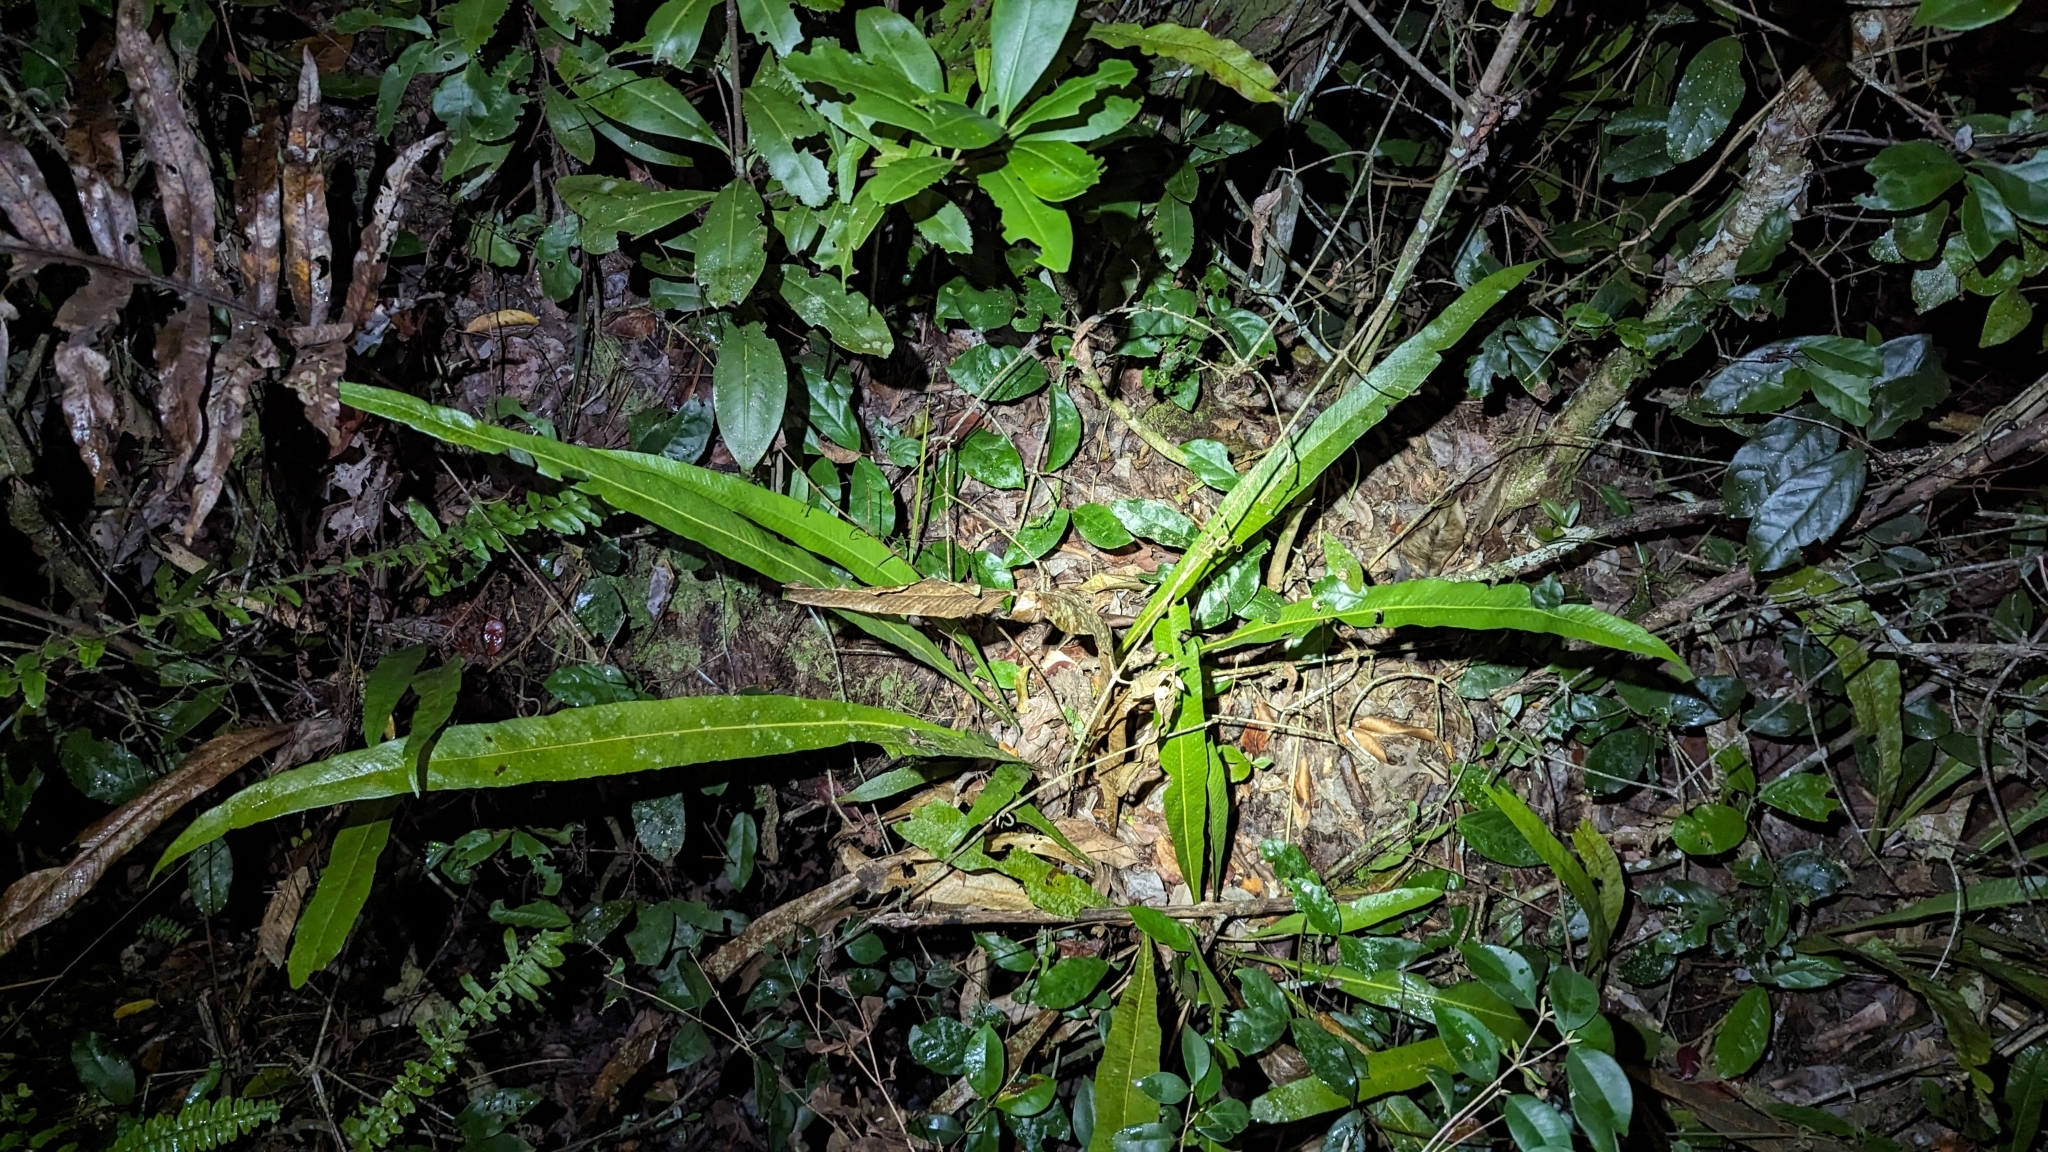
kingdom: Plantae
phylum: Tracheophyta
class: Polypodiopsida
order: Polypodiales
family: Polypodiaceae
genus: Campyloneurum
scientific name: Campyloneurum phyllitidis
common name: Cow-tongue fern
